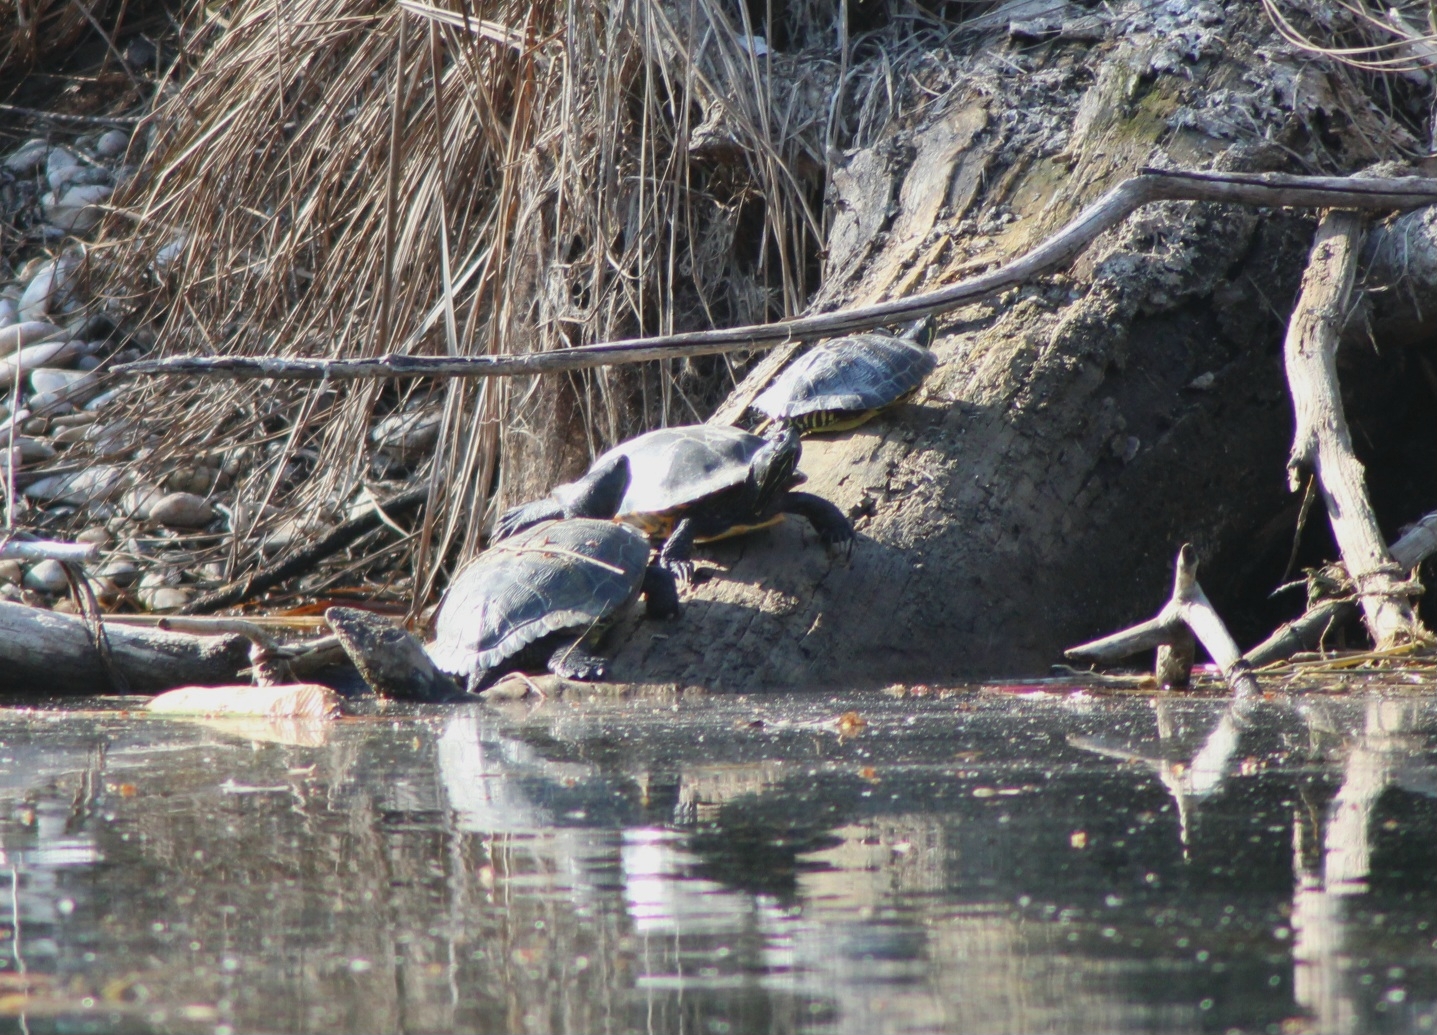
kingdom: Animalia
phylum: Chordata
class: Testudines
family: Emydidae
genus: Pseudemys
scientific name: Pseudemys concinna
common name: Eastern river cooter
